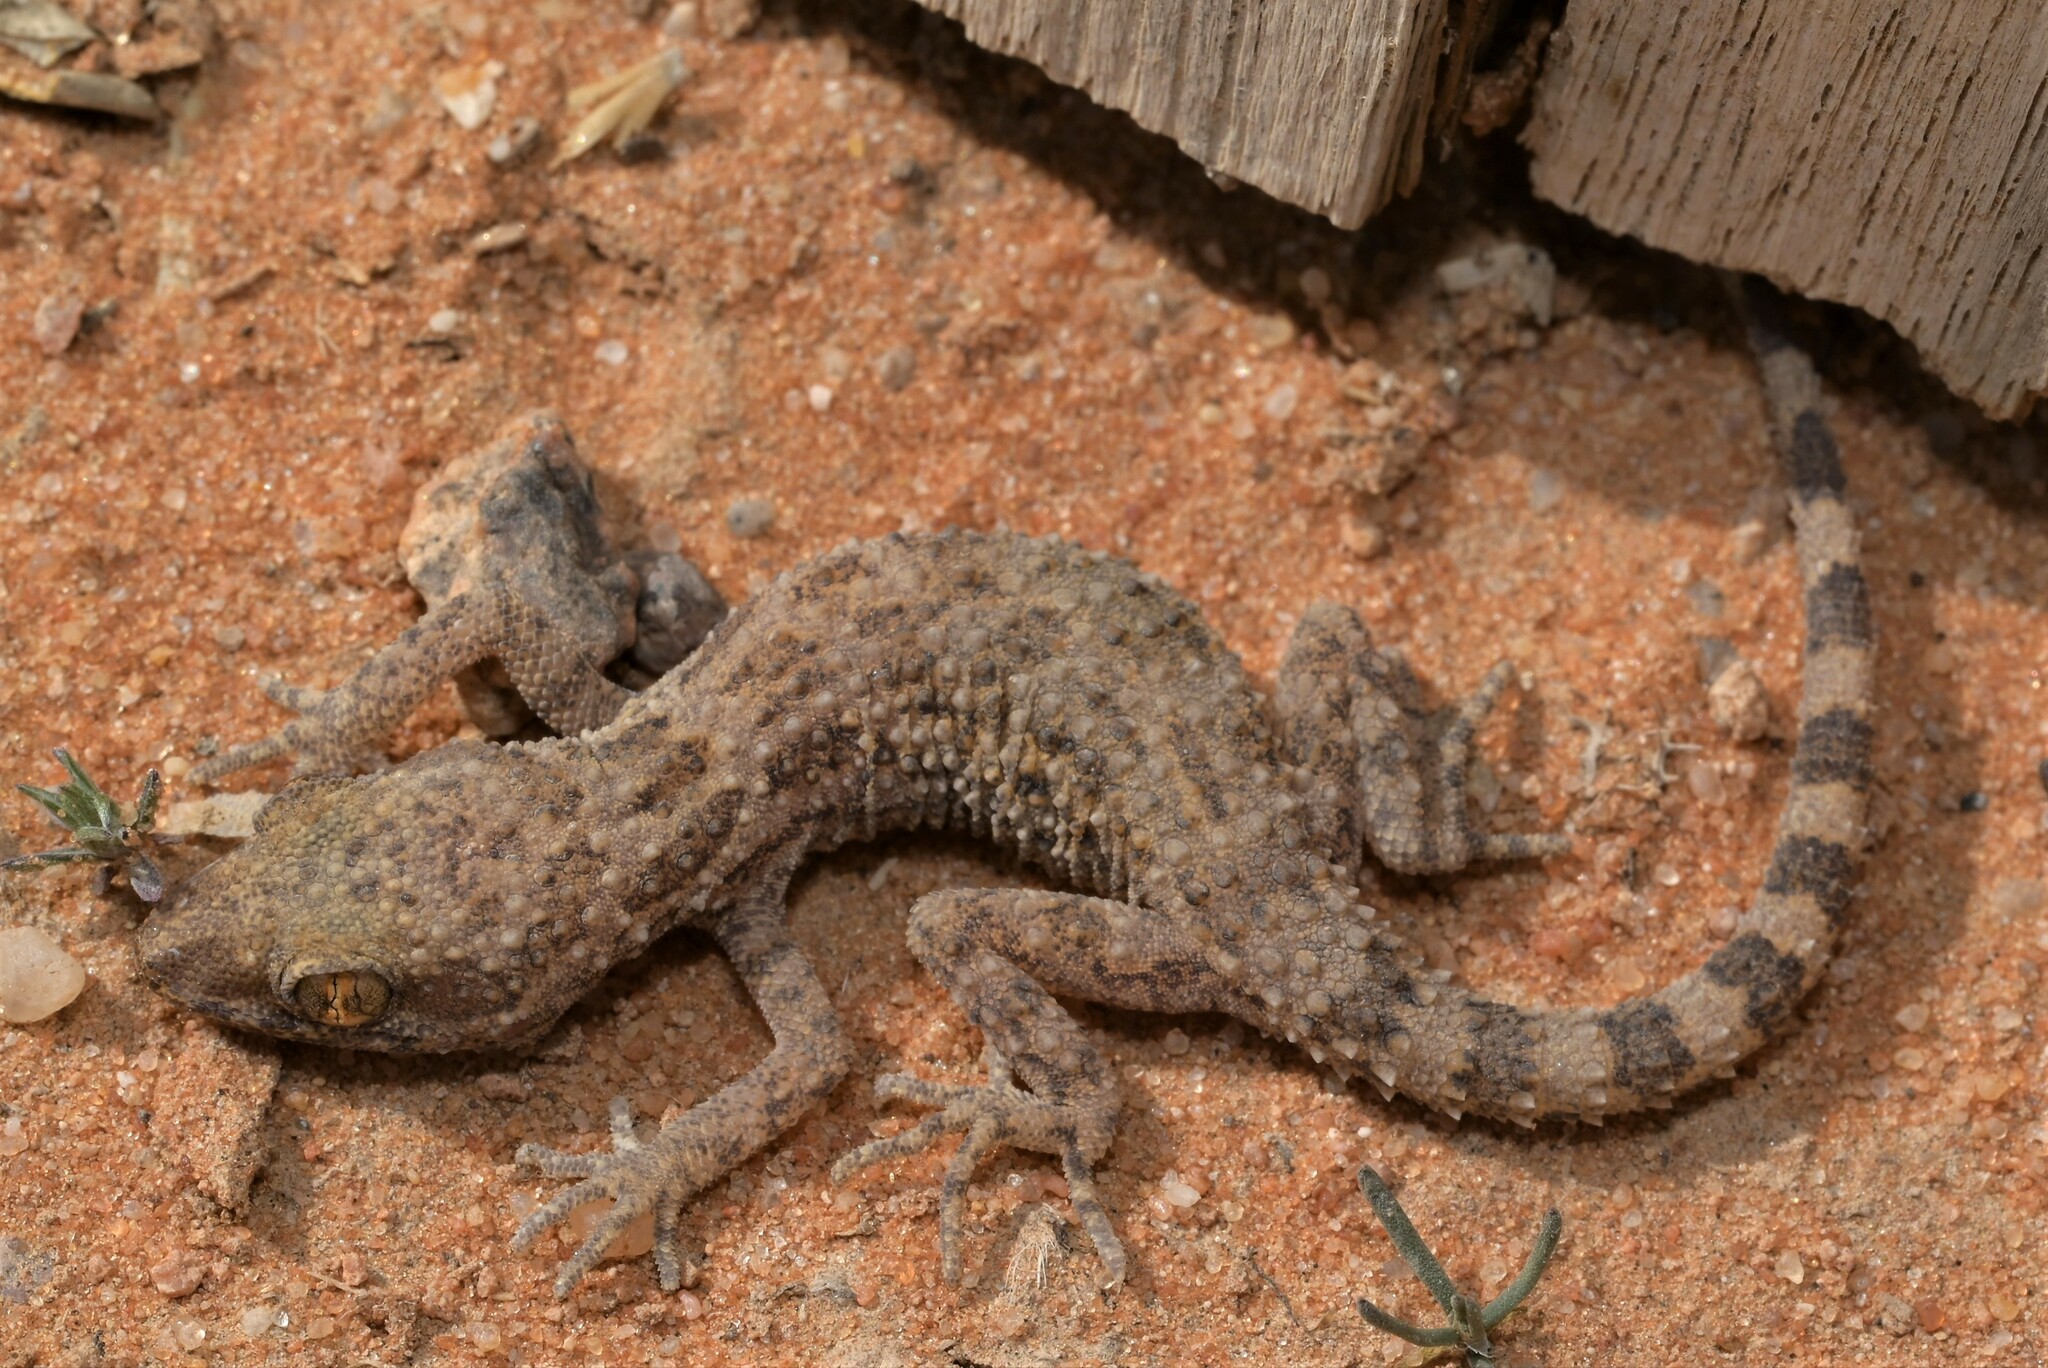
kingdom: Animalia
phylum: Chordata
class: Squamata
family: Gekkonidae
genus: Bunopus
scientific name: Bunopus tuberculatus
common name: Southern tuberculated gecko
